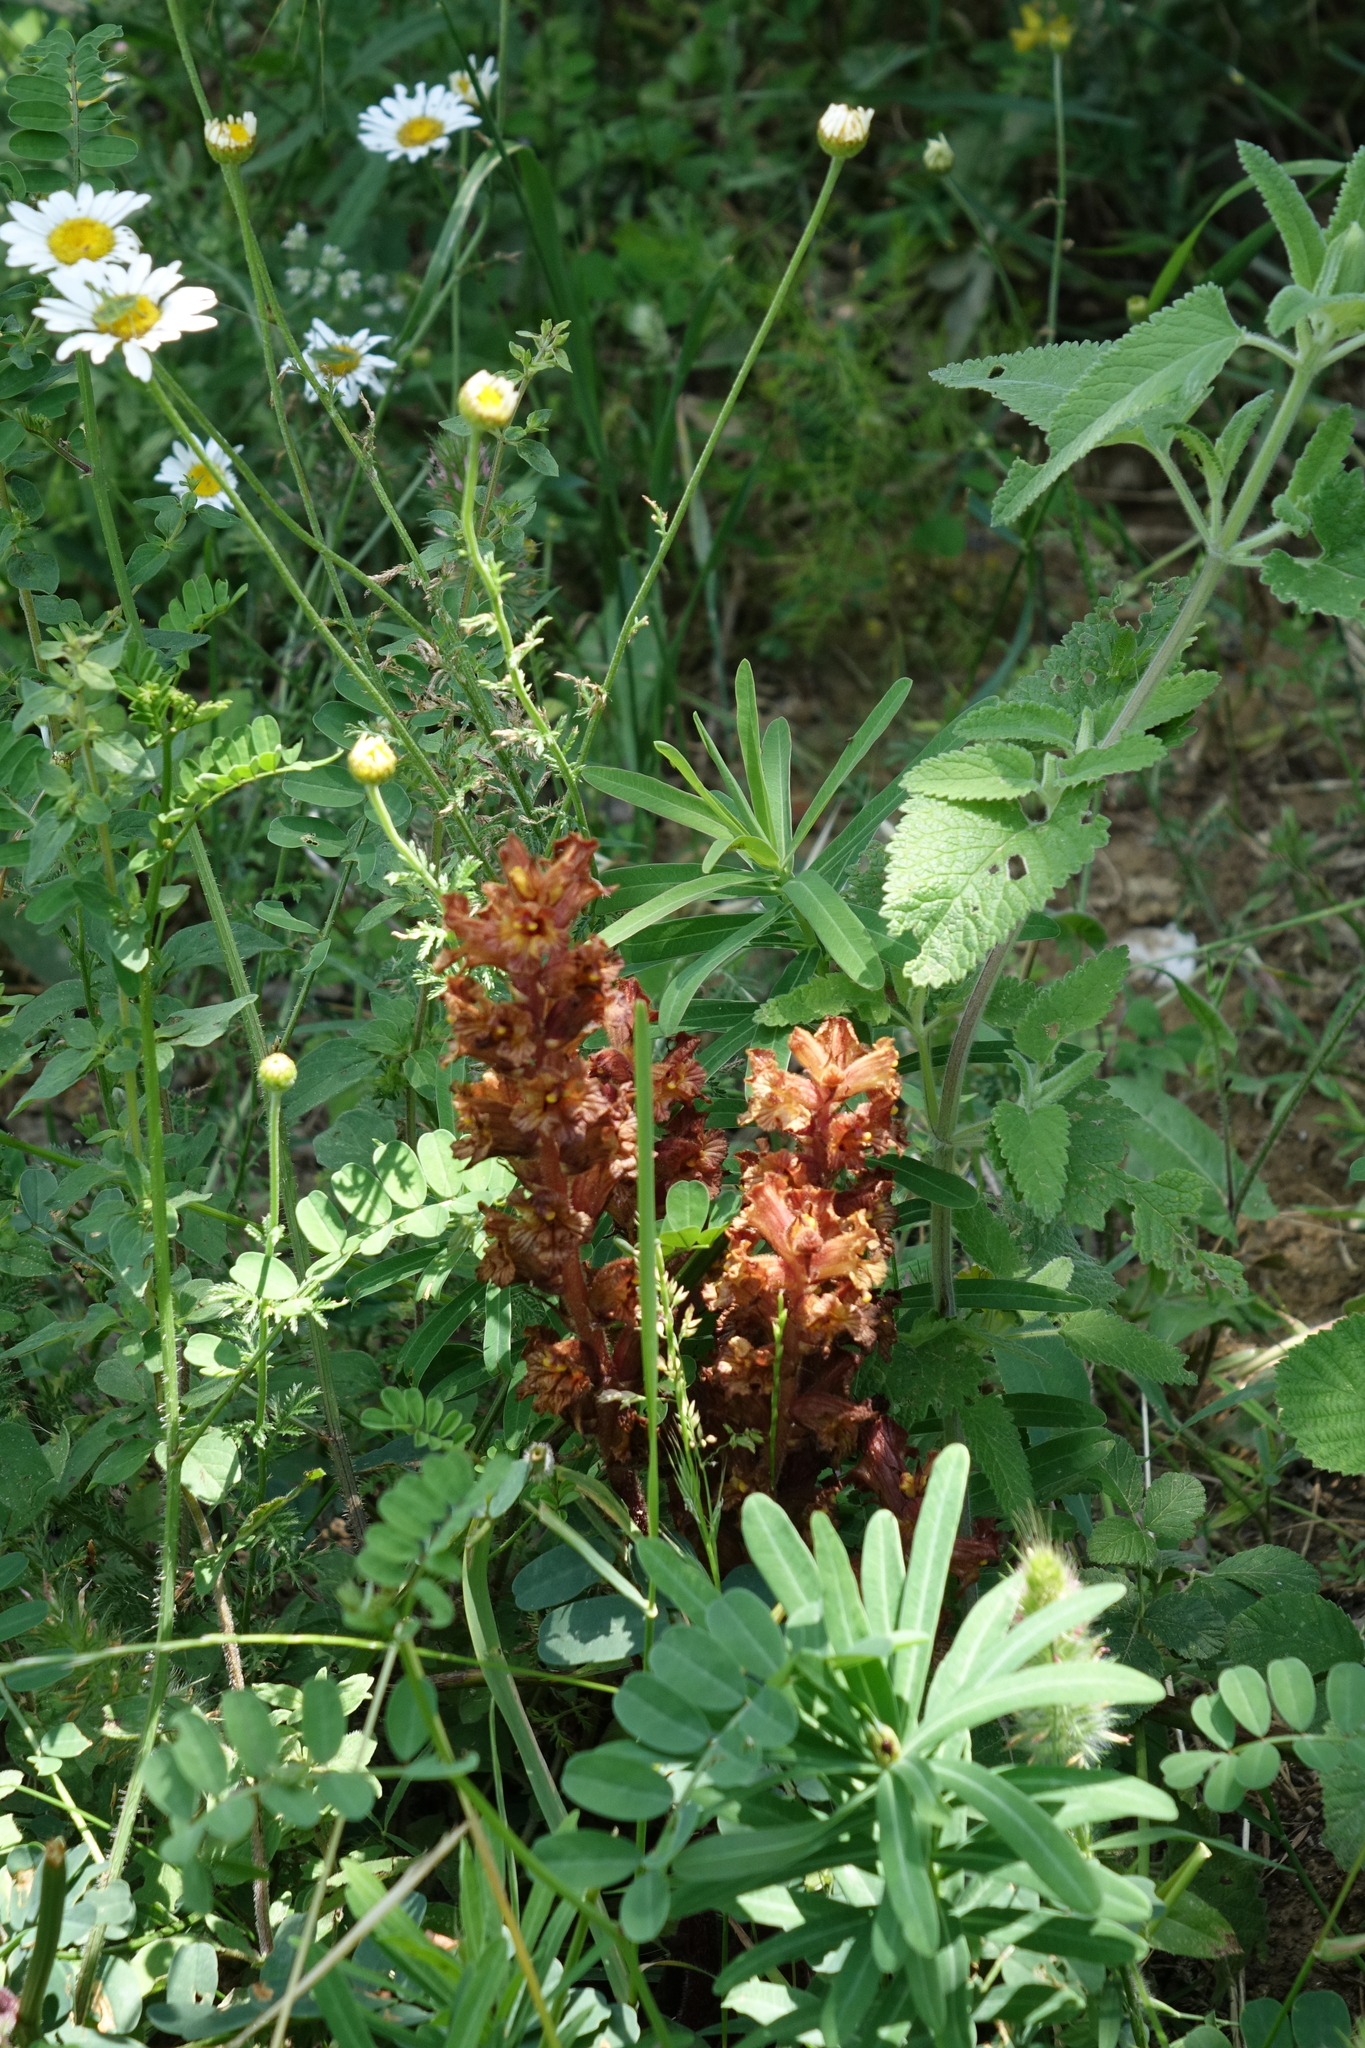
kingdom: Plantae
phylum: Tracheophyta
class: Magnoliopsida
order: Lamiales
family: Orobanchaceae
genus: Orobanche
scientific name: Orobanche alba
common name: Thyme broomrape
